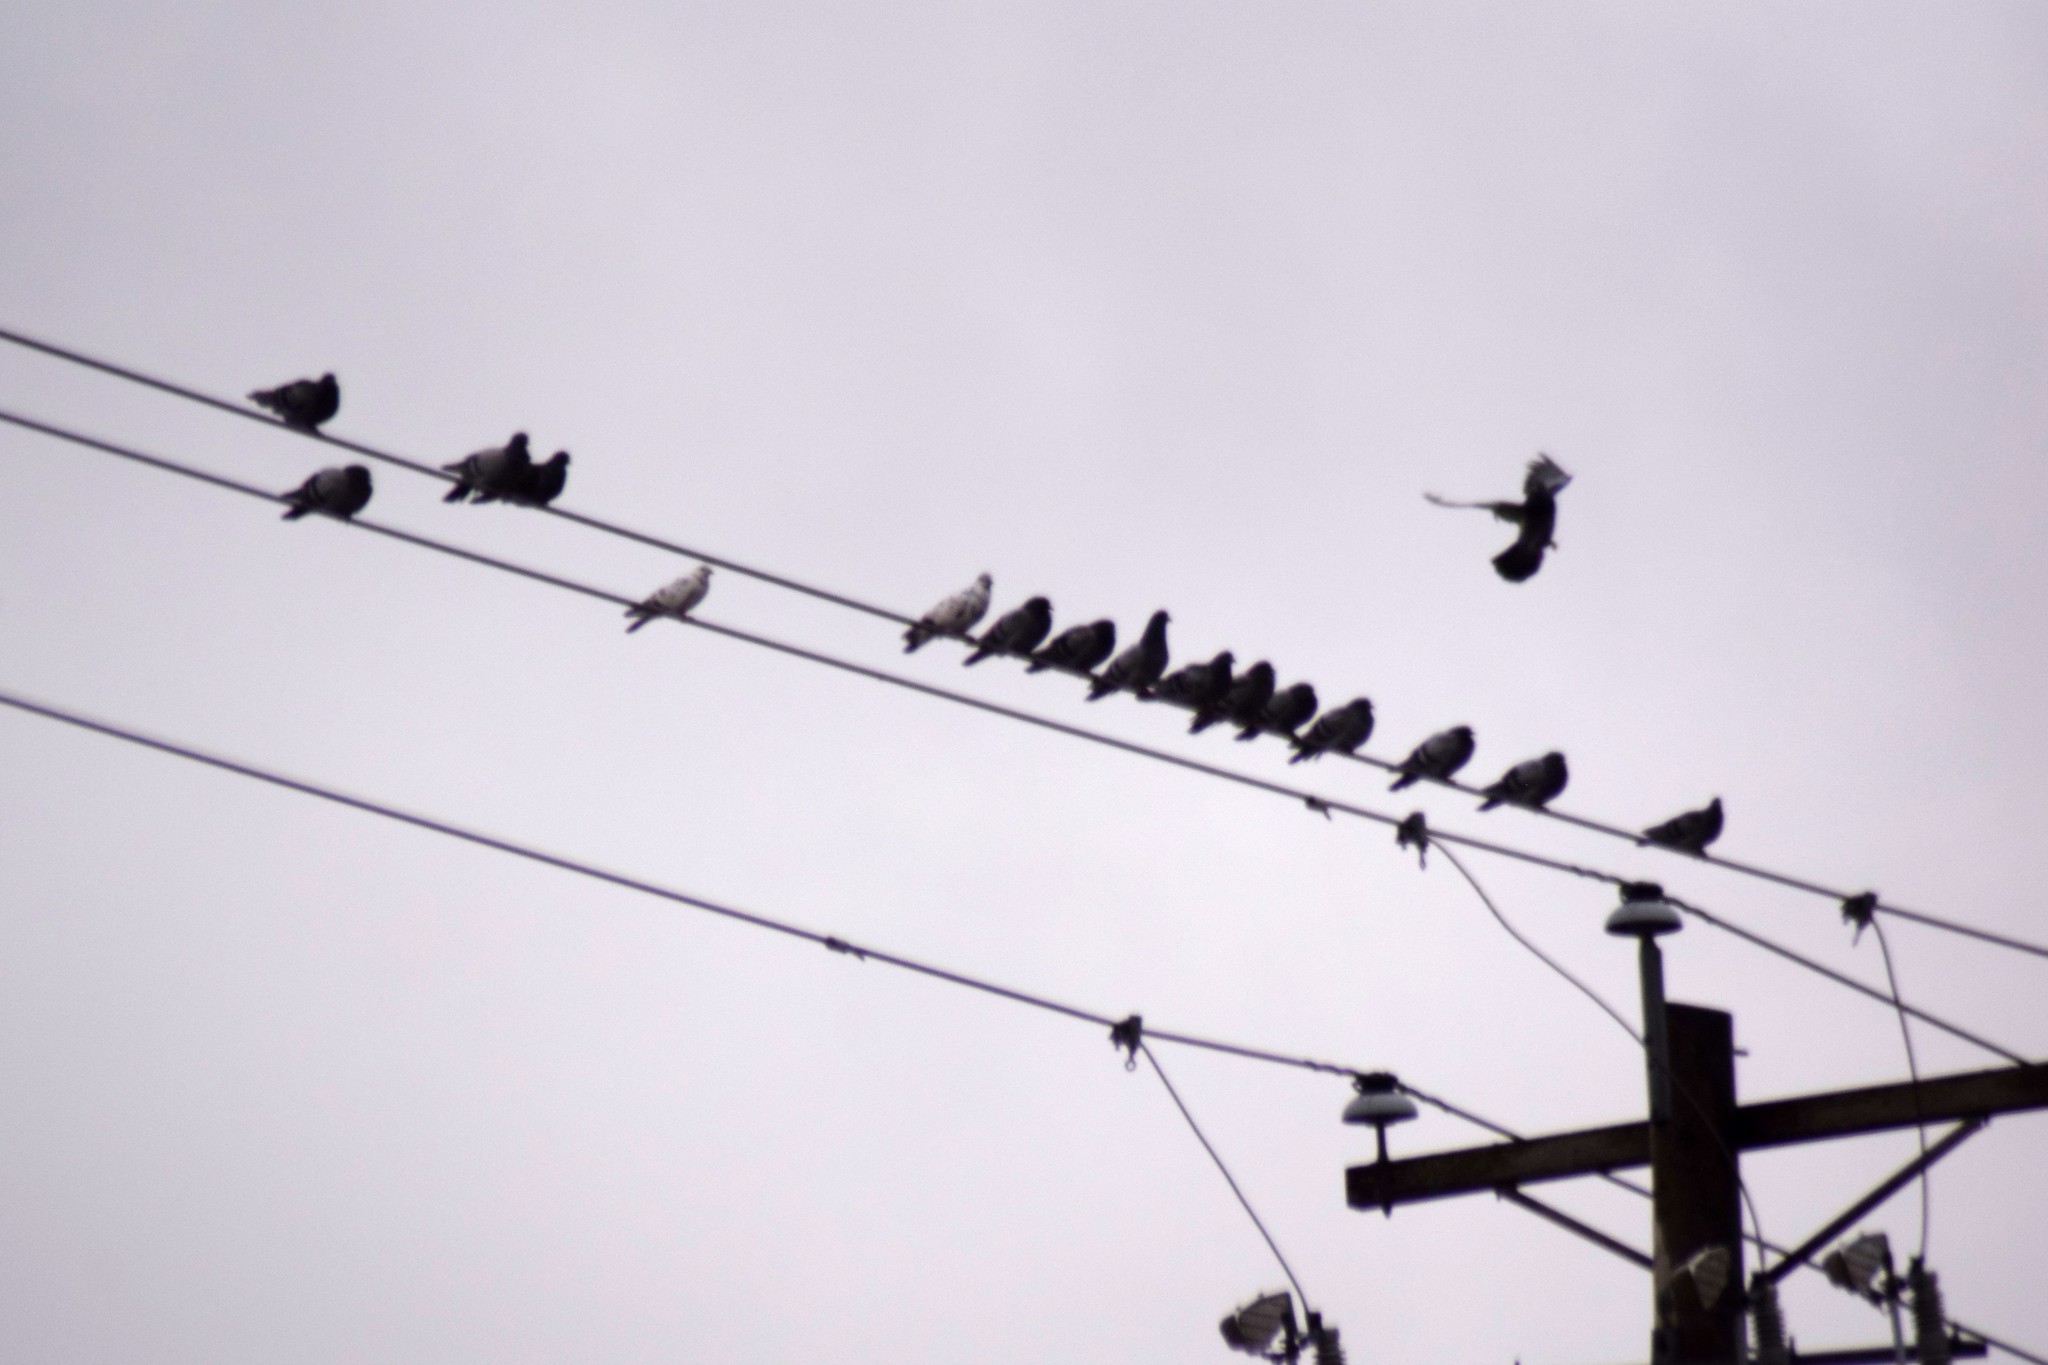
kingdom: Animalia
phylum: Chordata
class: Aves
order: Columbiformes
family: Columbidae
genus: Columba
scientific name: Columba livia
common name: Rock pigeon
